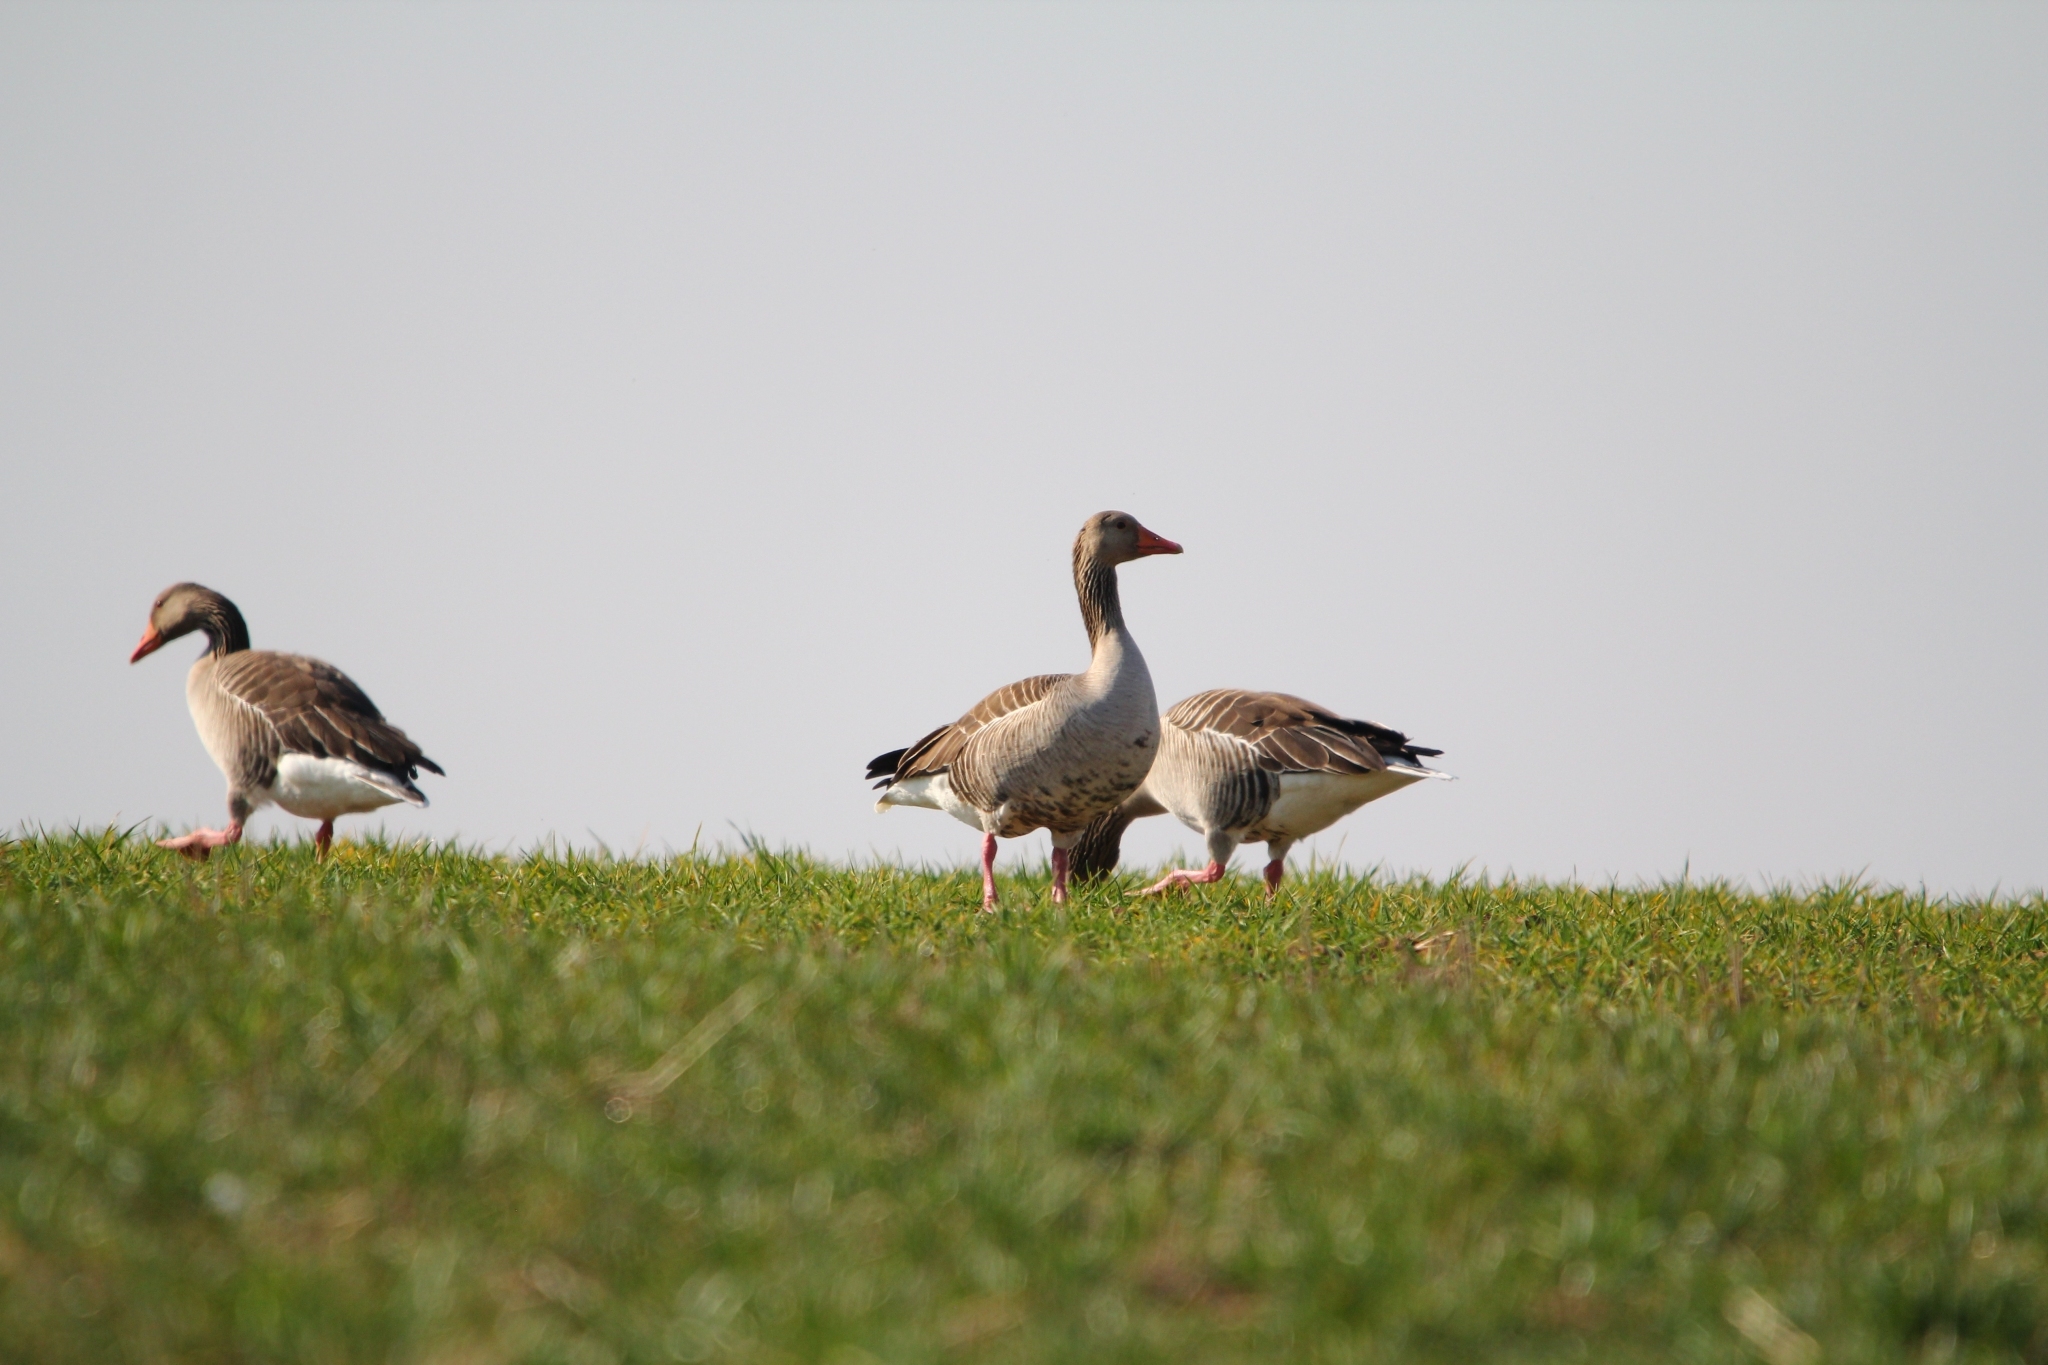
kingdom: Animalia
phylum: Chordata
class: Aves
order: Anseriformes
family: Anatidae
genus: Anser
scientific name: Anser anser
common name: Greylag goose
